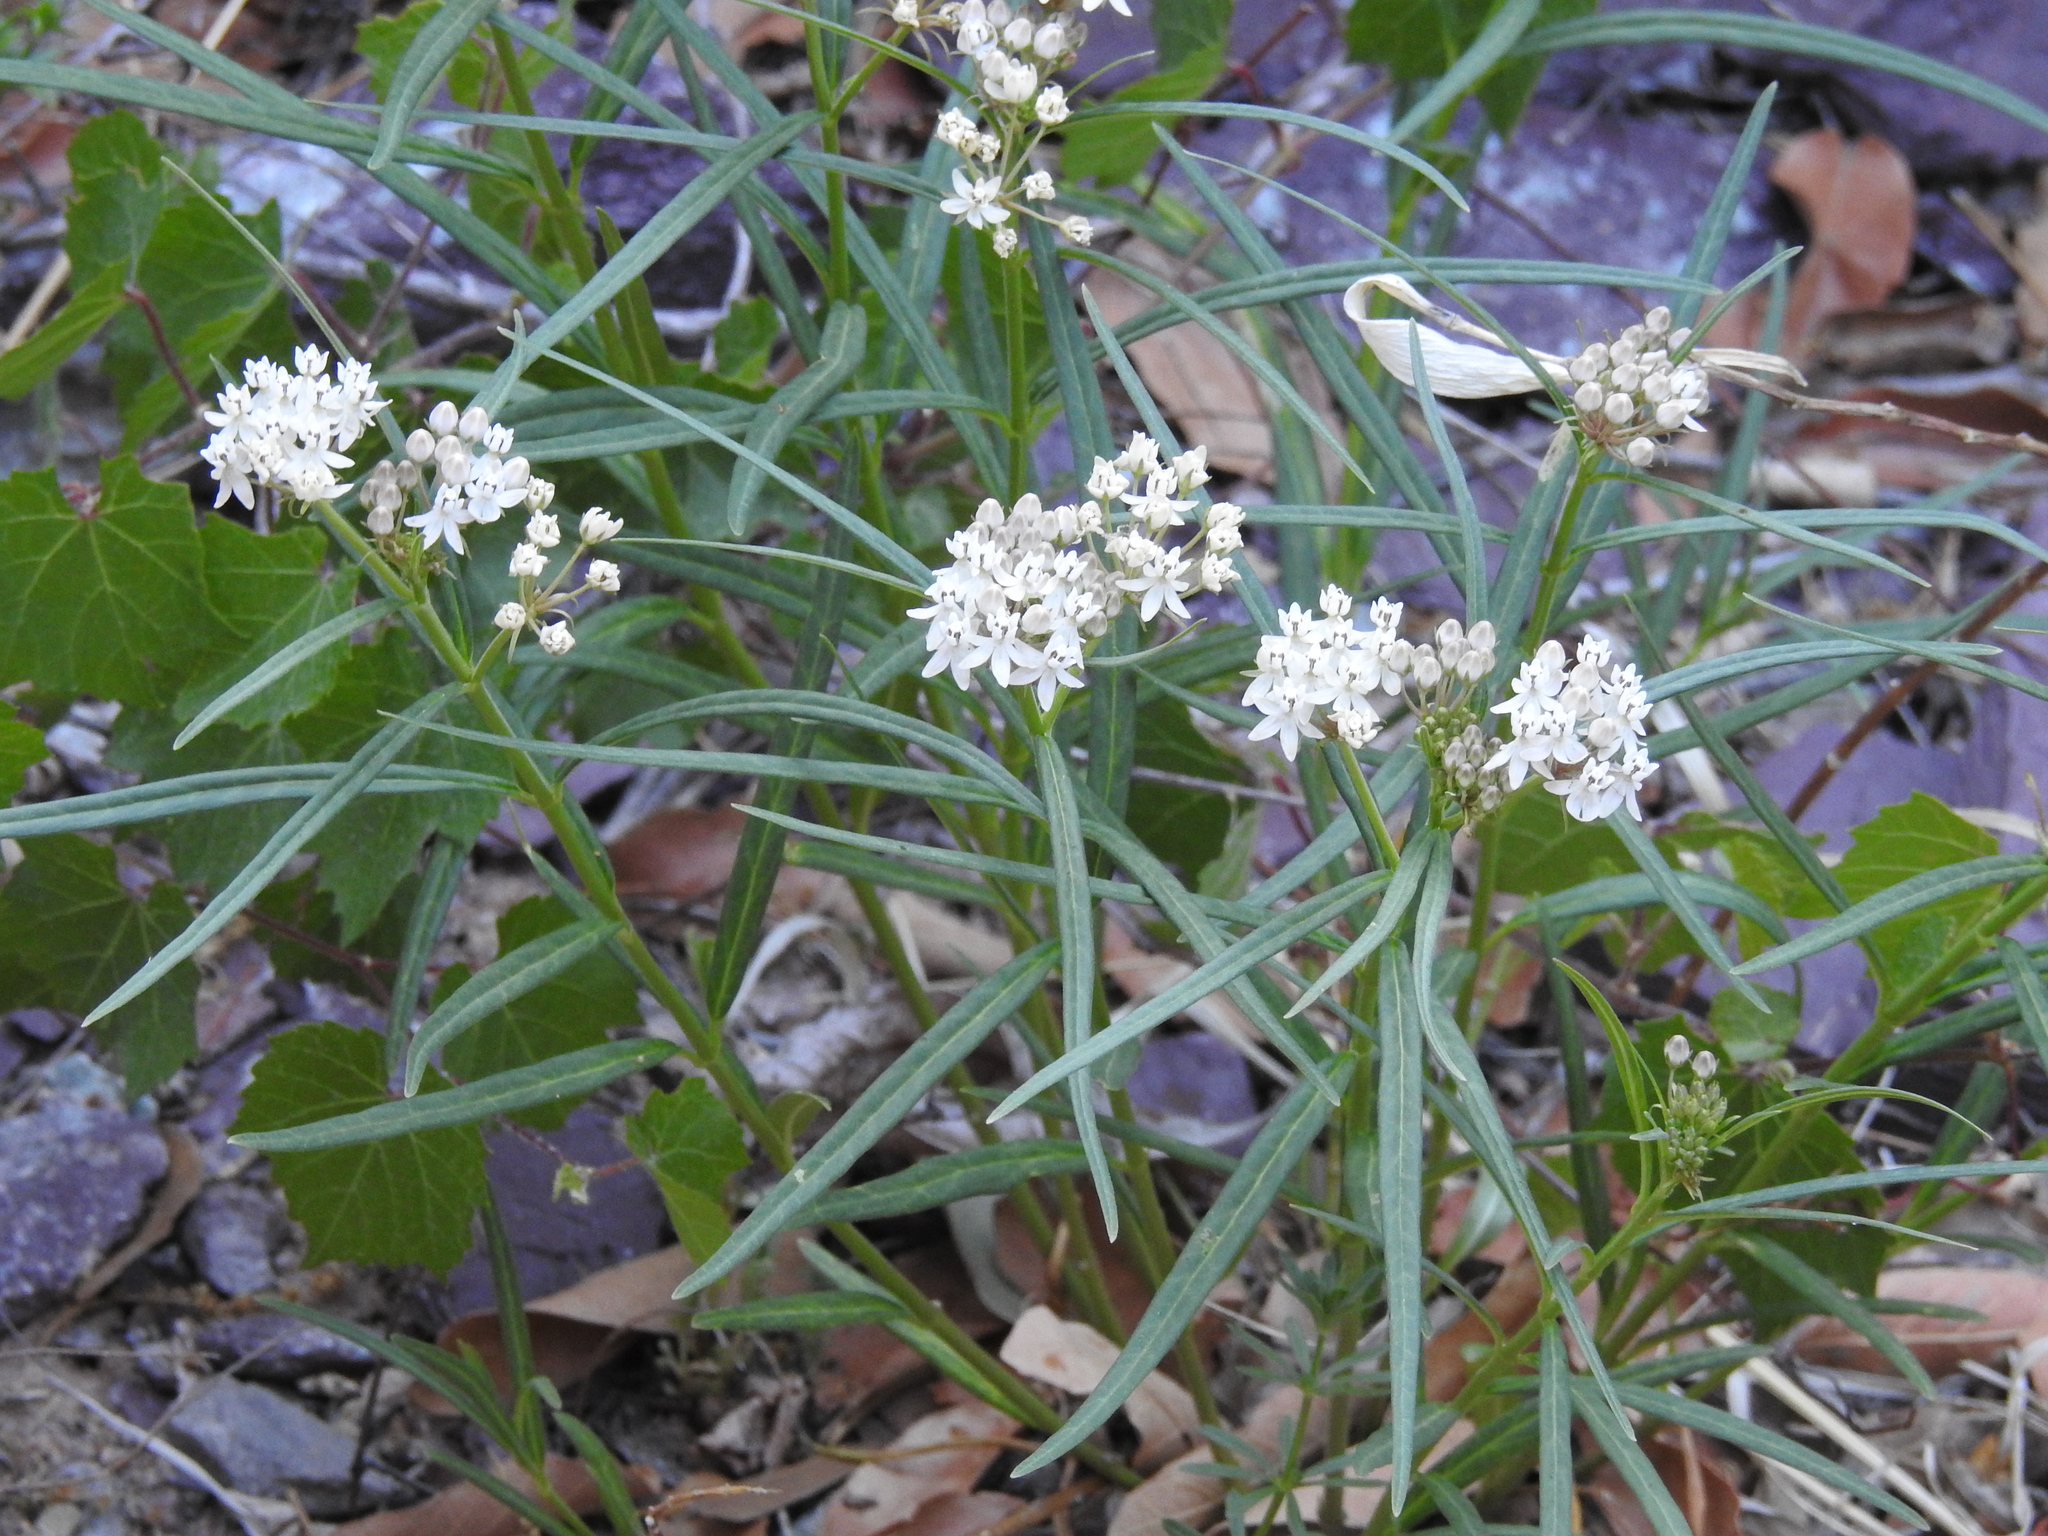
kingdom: Plantae
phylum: Tracheophyta
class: Magnoliopsida
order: Gentianales
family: Apocynaceae
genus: Asclepias
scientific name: Asclepias angustifolia
